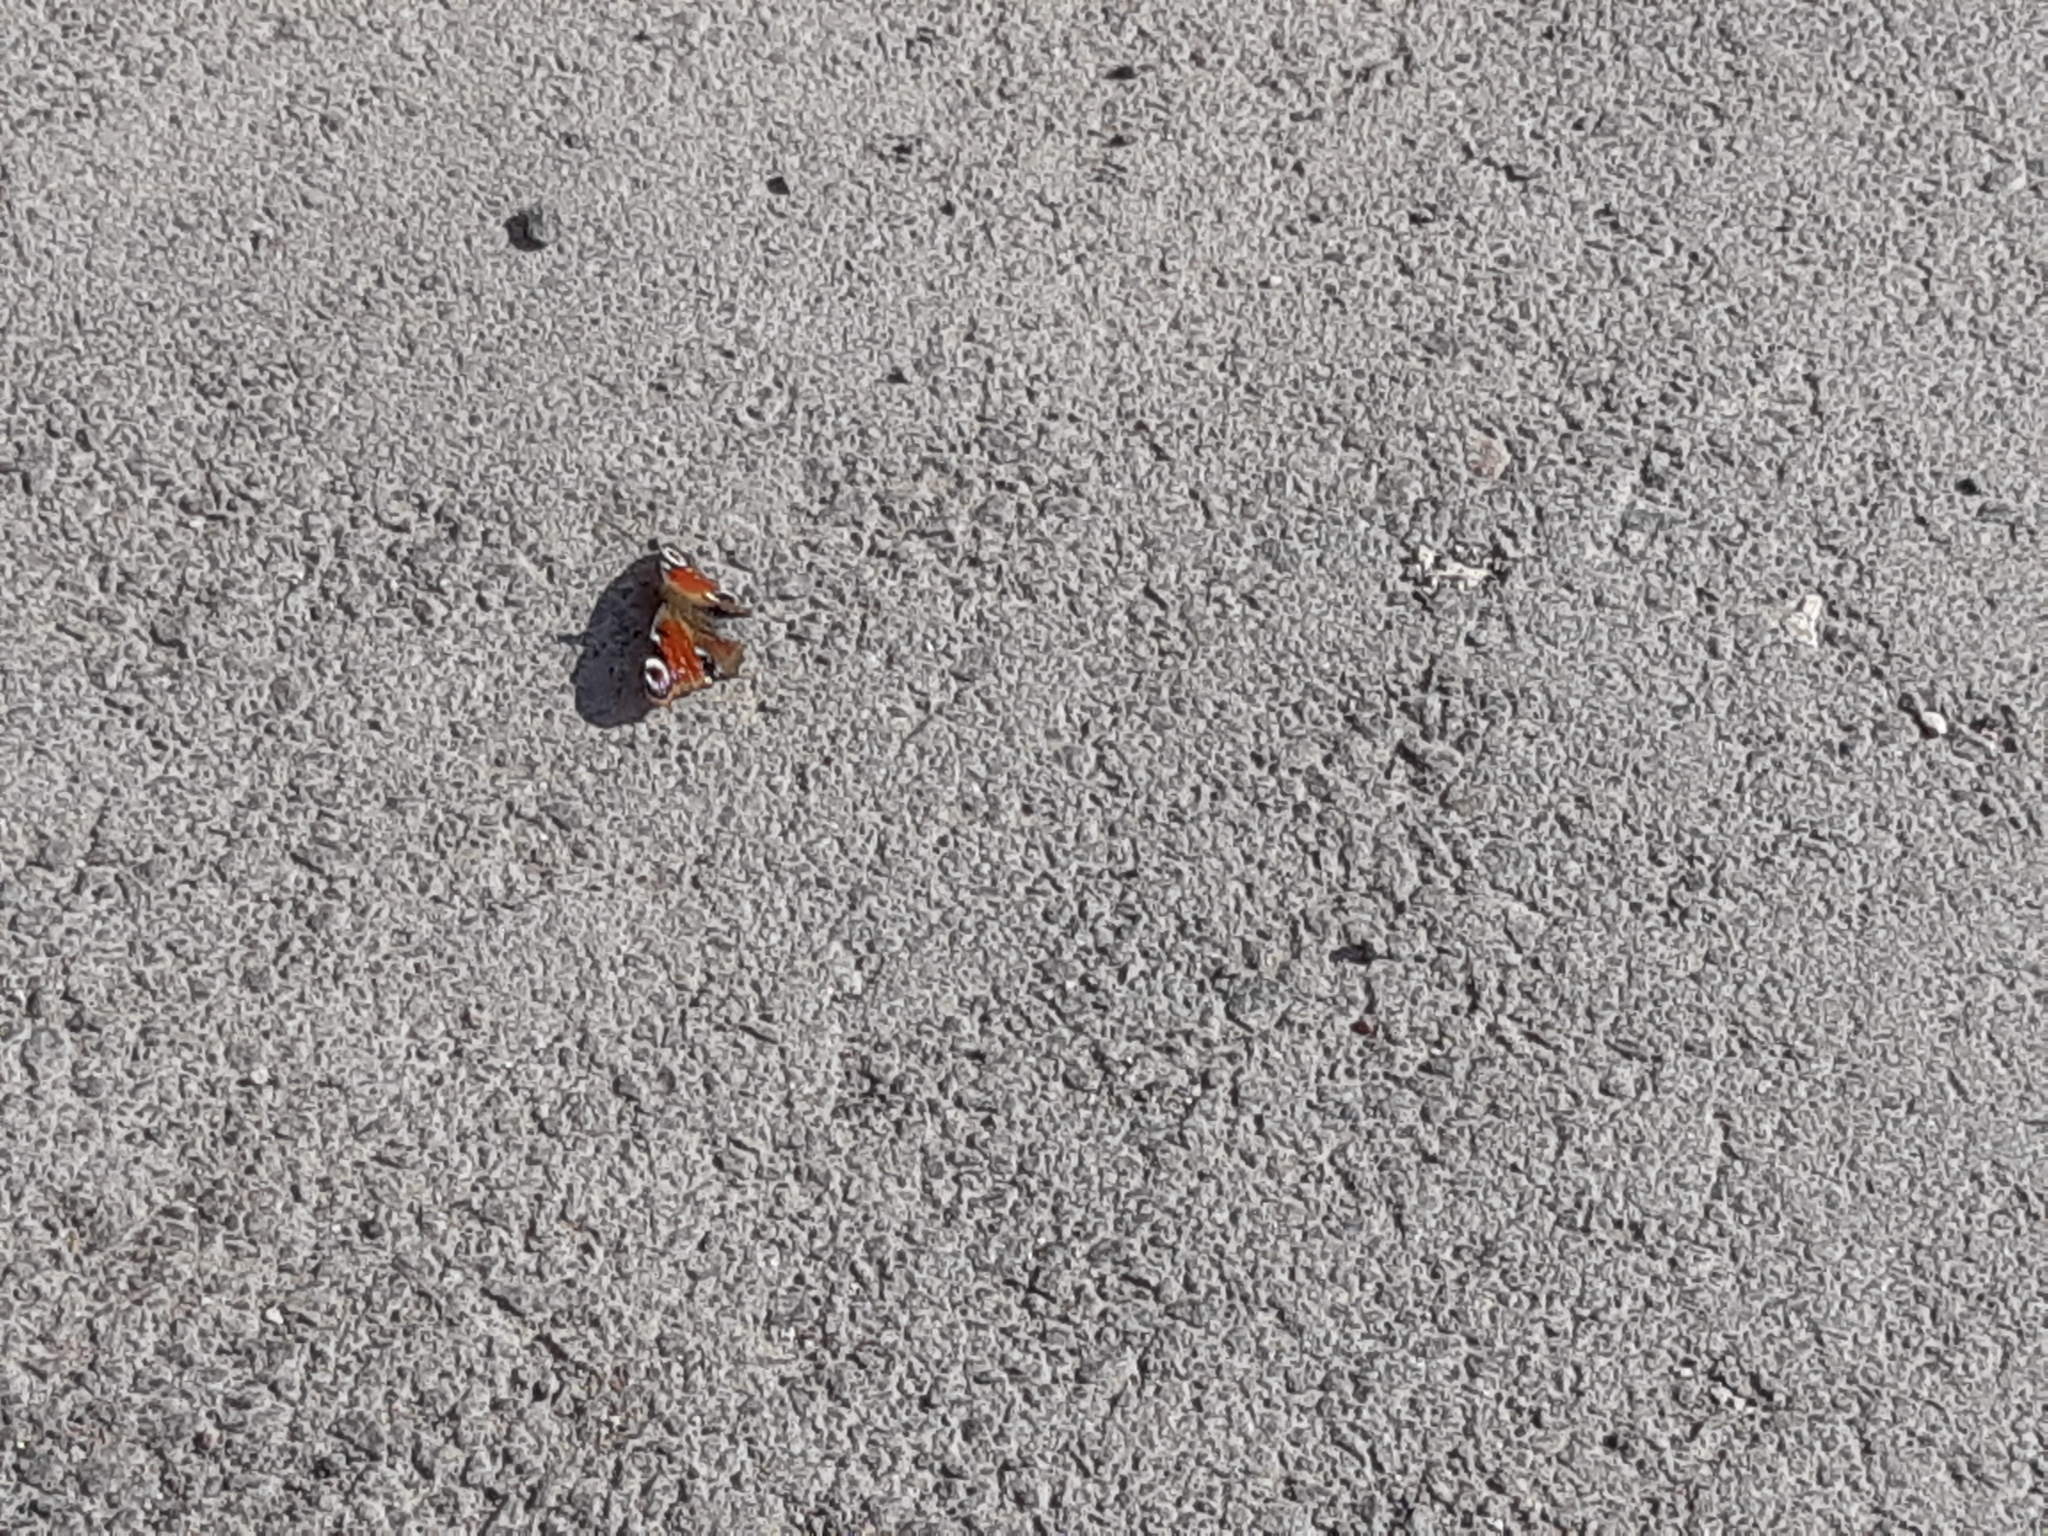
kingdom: Animalia
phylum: Arthropoda
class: Insecta
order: Lepidoptera
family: Nymphalidae
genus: Aglais
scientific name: Aglais io
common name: Peacock
